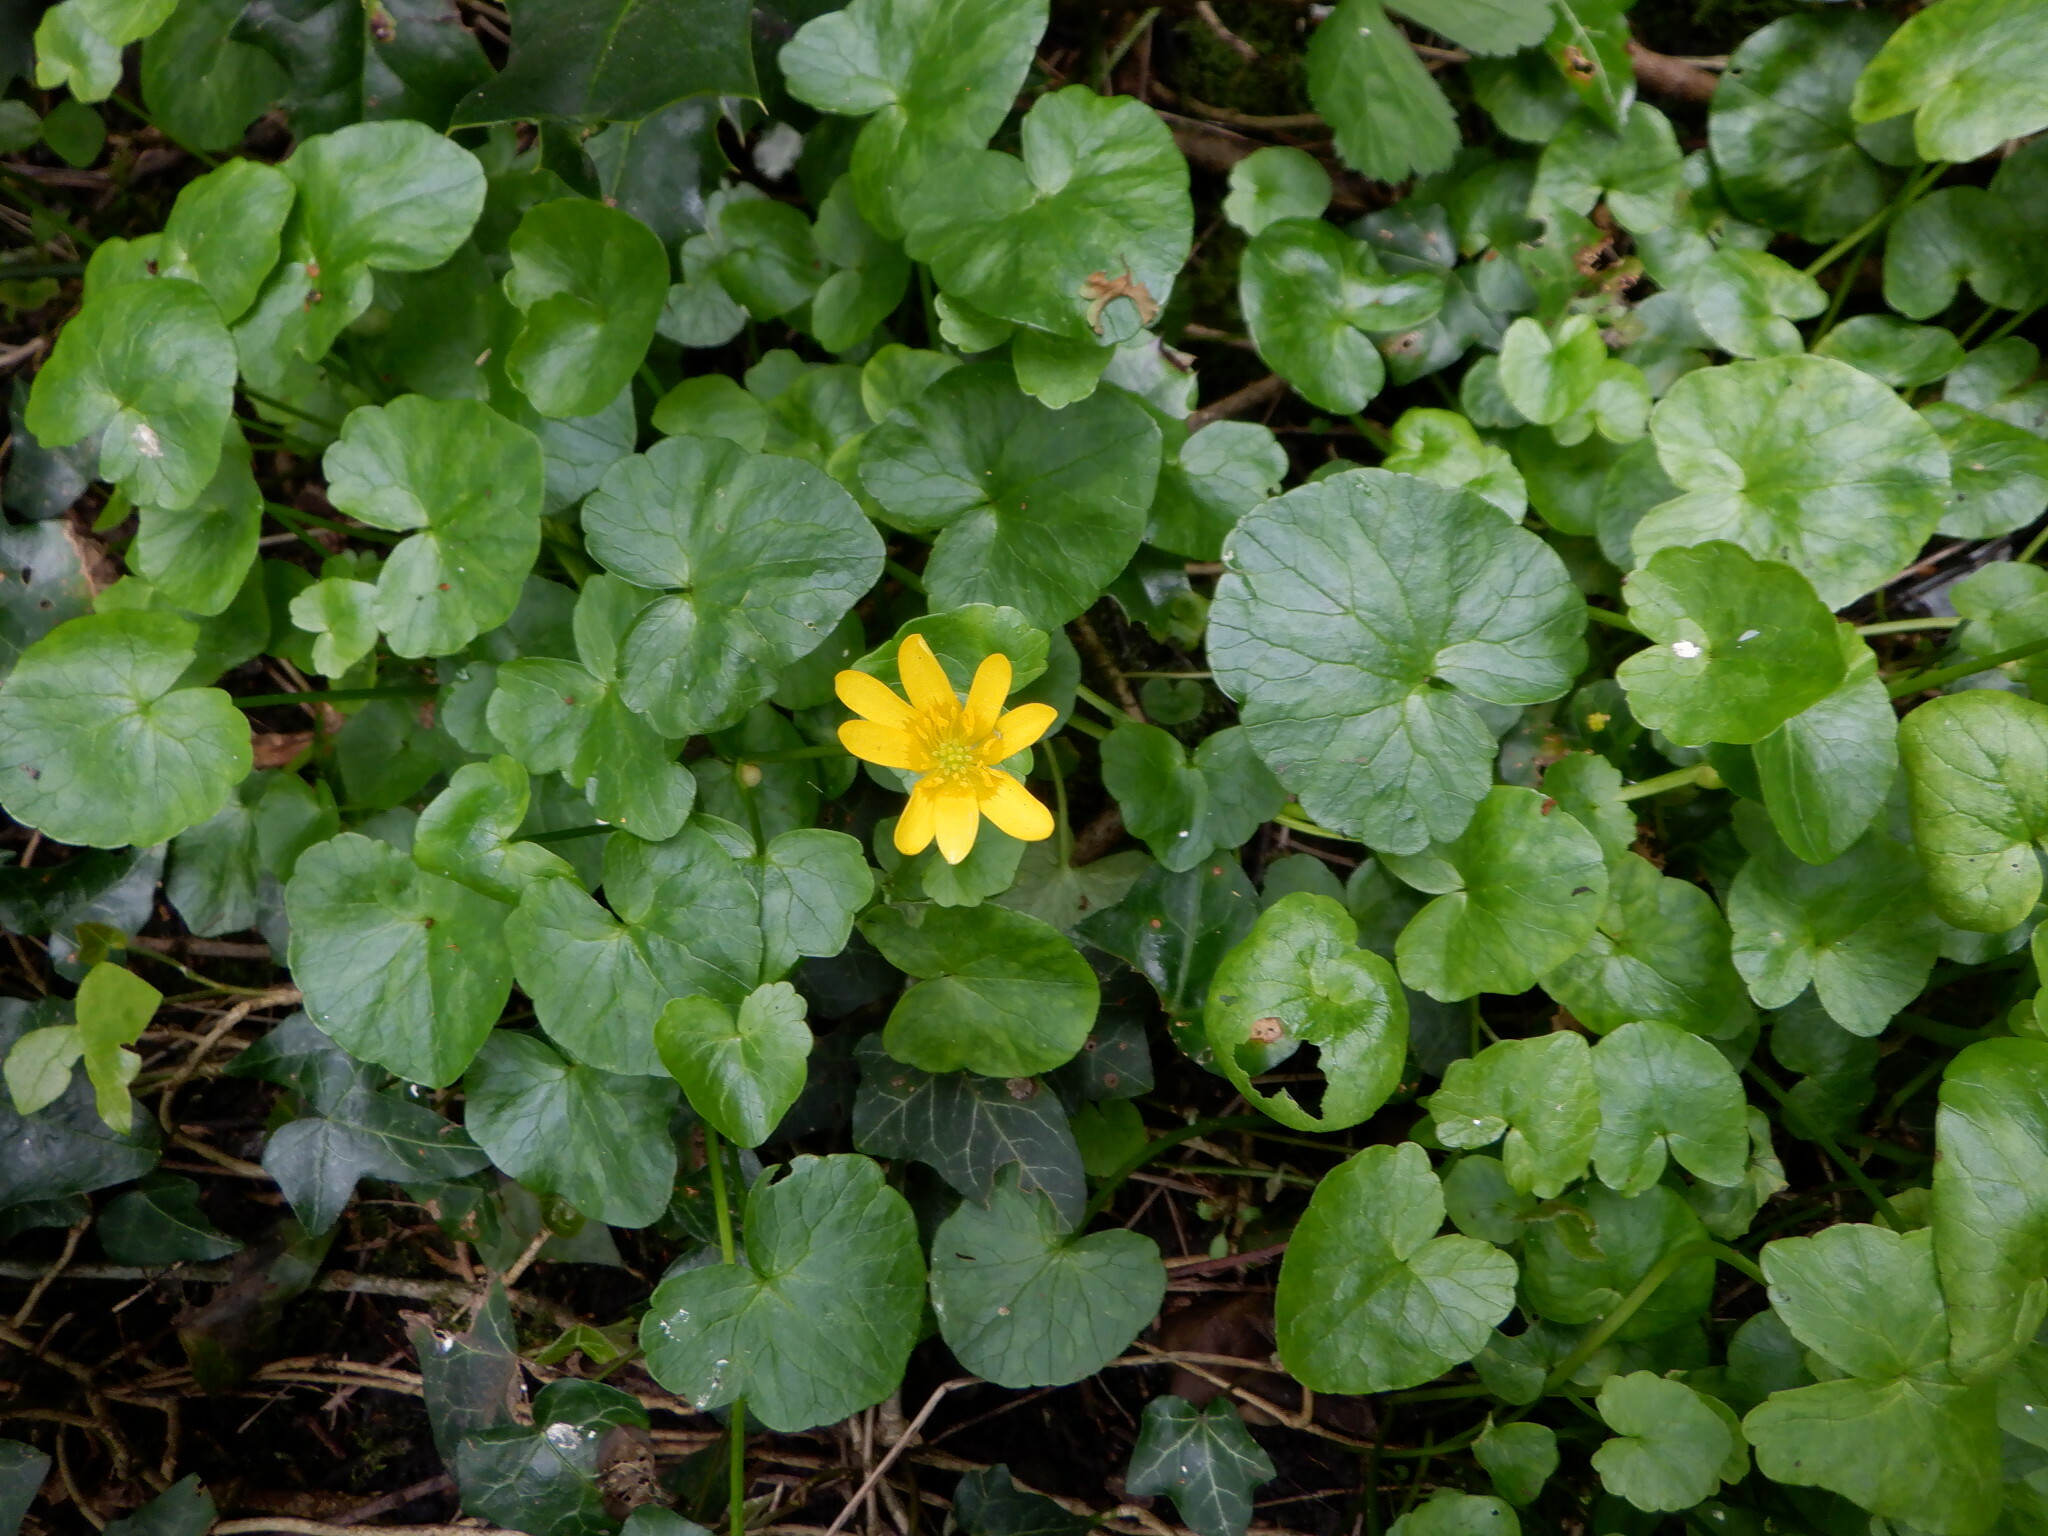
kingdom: Plantae
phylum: Tracheophyta
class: Magnoliopsida
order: Ranunculales
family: Ranunculaceae
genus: Ficaria
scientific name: Ficaria verna
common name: Lesser celandine
